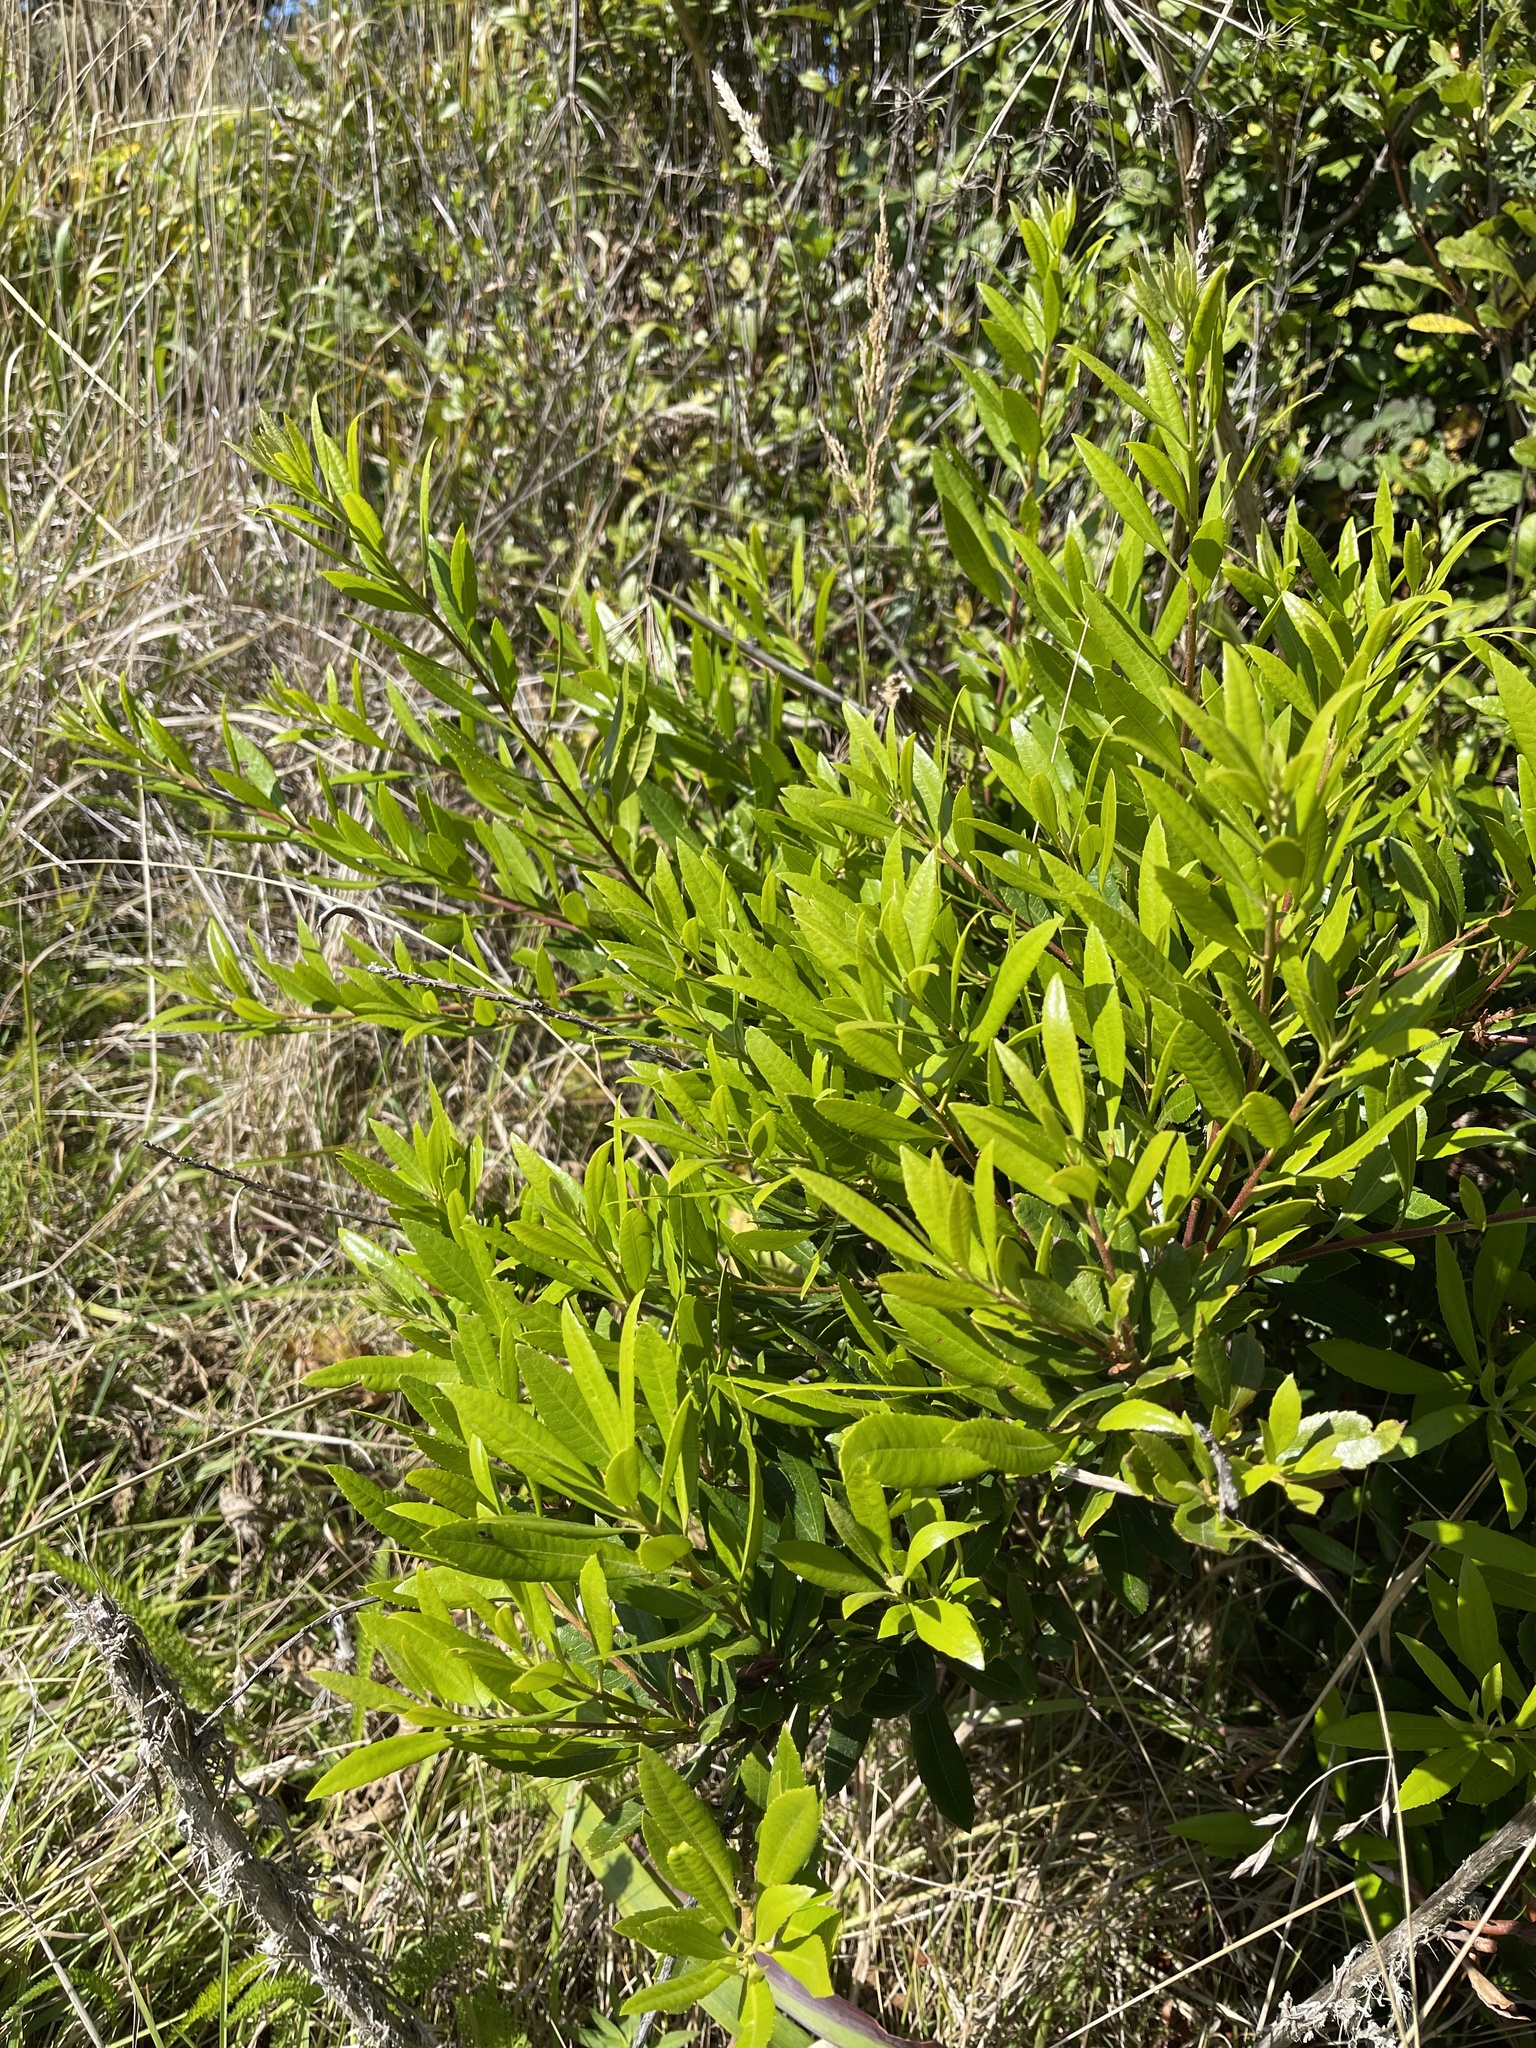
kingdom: Plantae
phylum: Tracheophyta
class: Magnoliopsida
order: Fagales
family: Myricaceae
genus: Morella
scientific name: Morella californica
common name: California wax-myrtle
